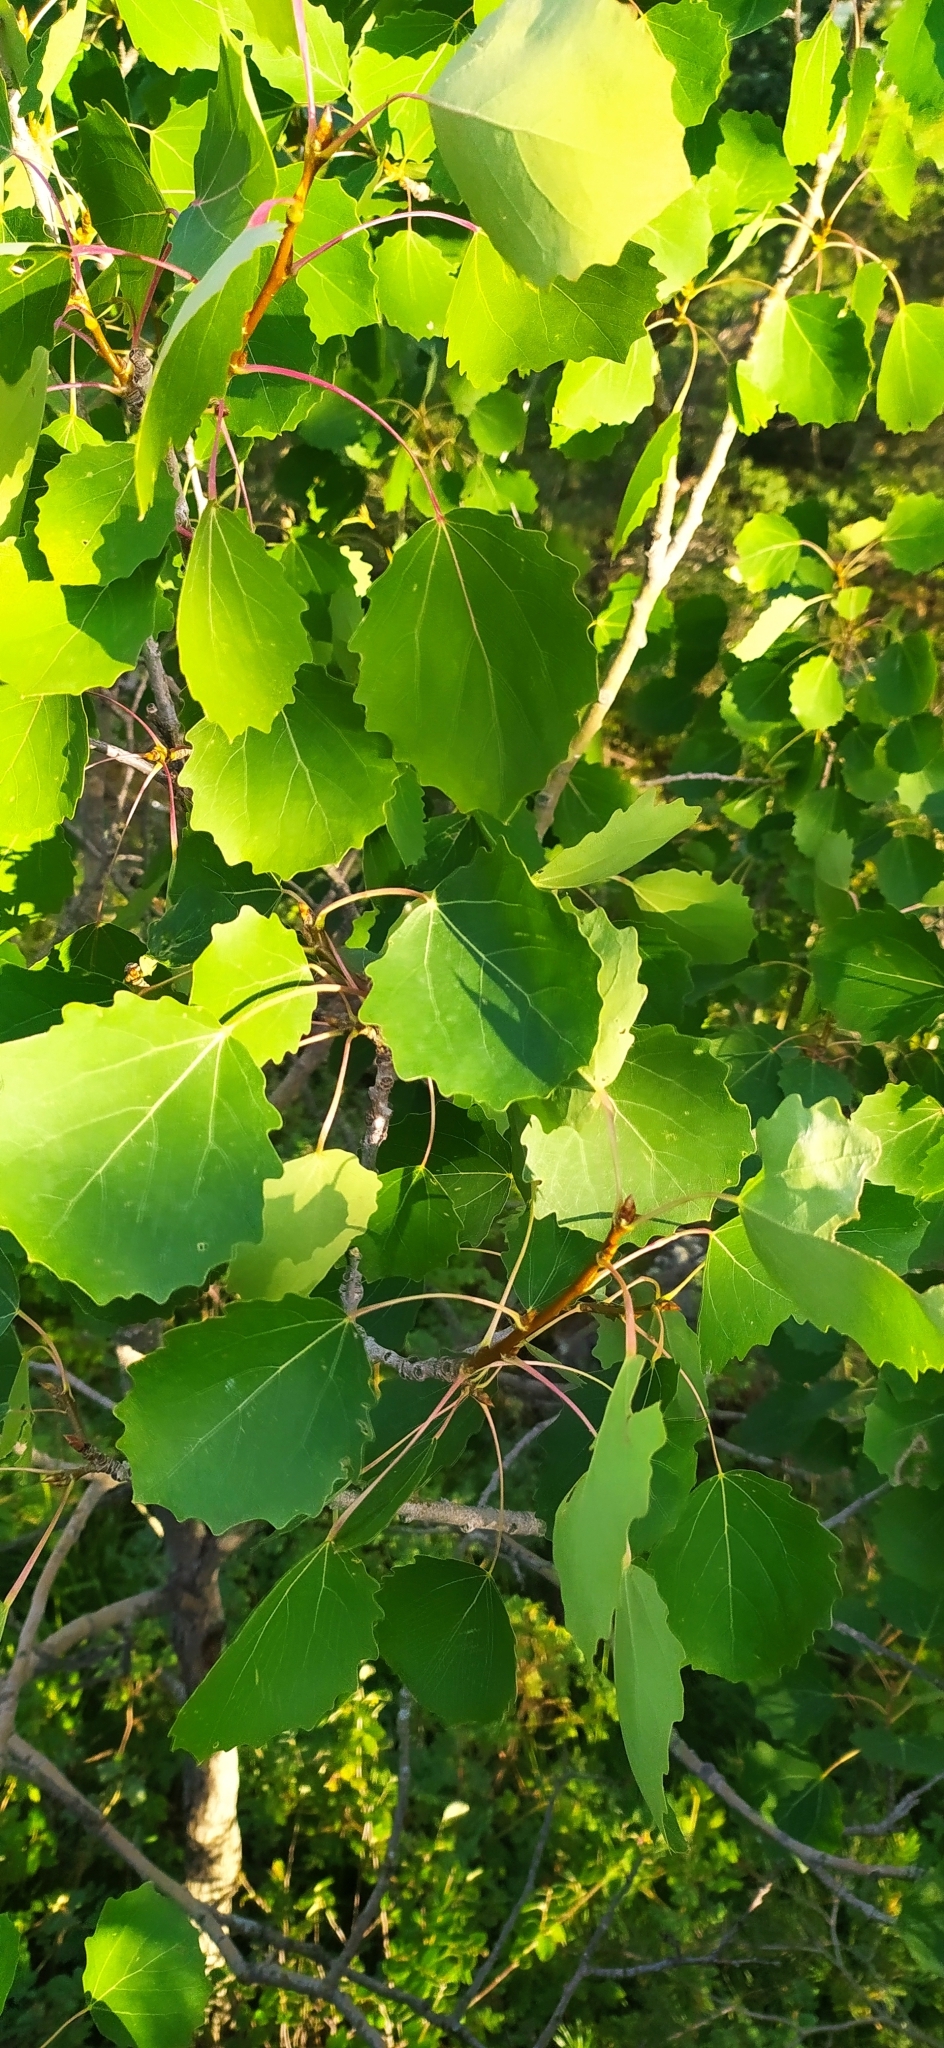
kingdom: Plantae
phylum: Tracheophyta
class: Magnoliopsida
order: Malpighiales
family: Salicaceae
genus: Populus
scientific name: Populus tremula
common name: European aspen
